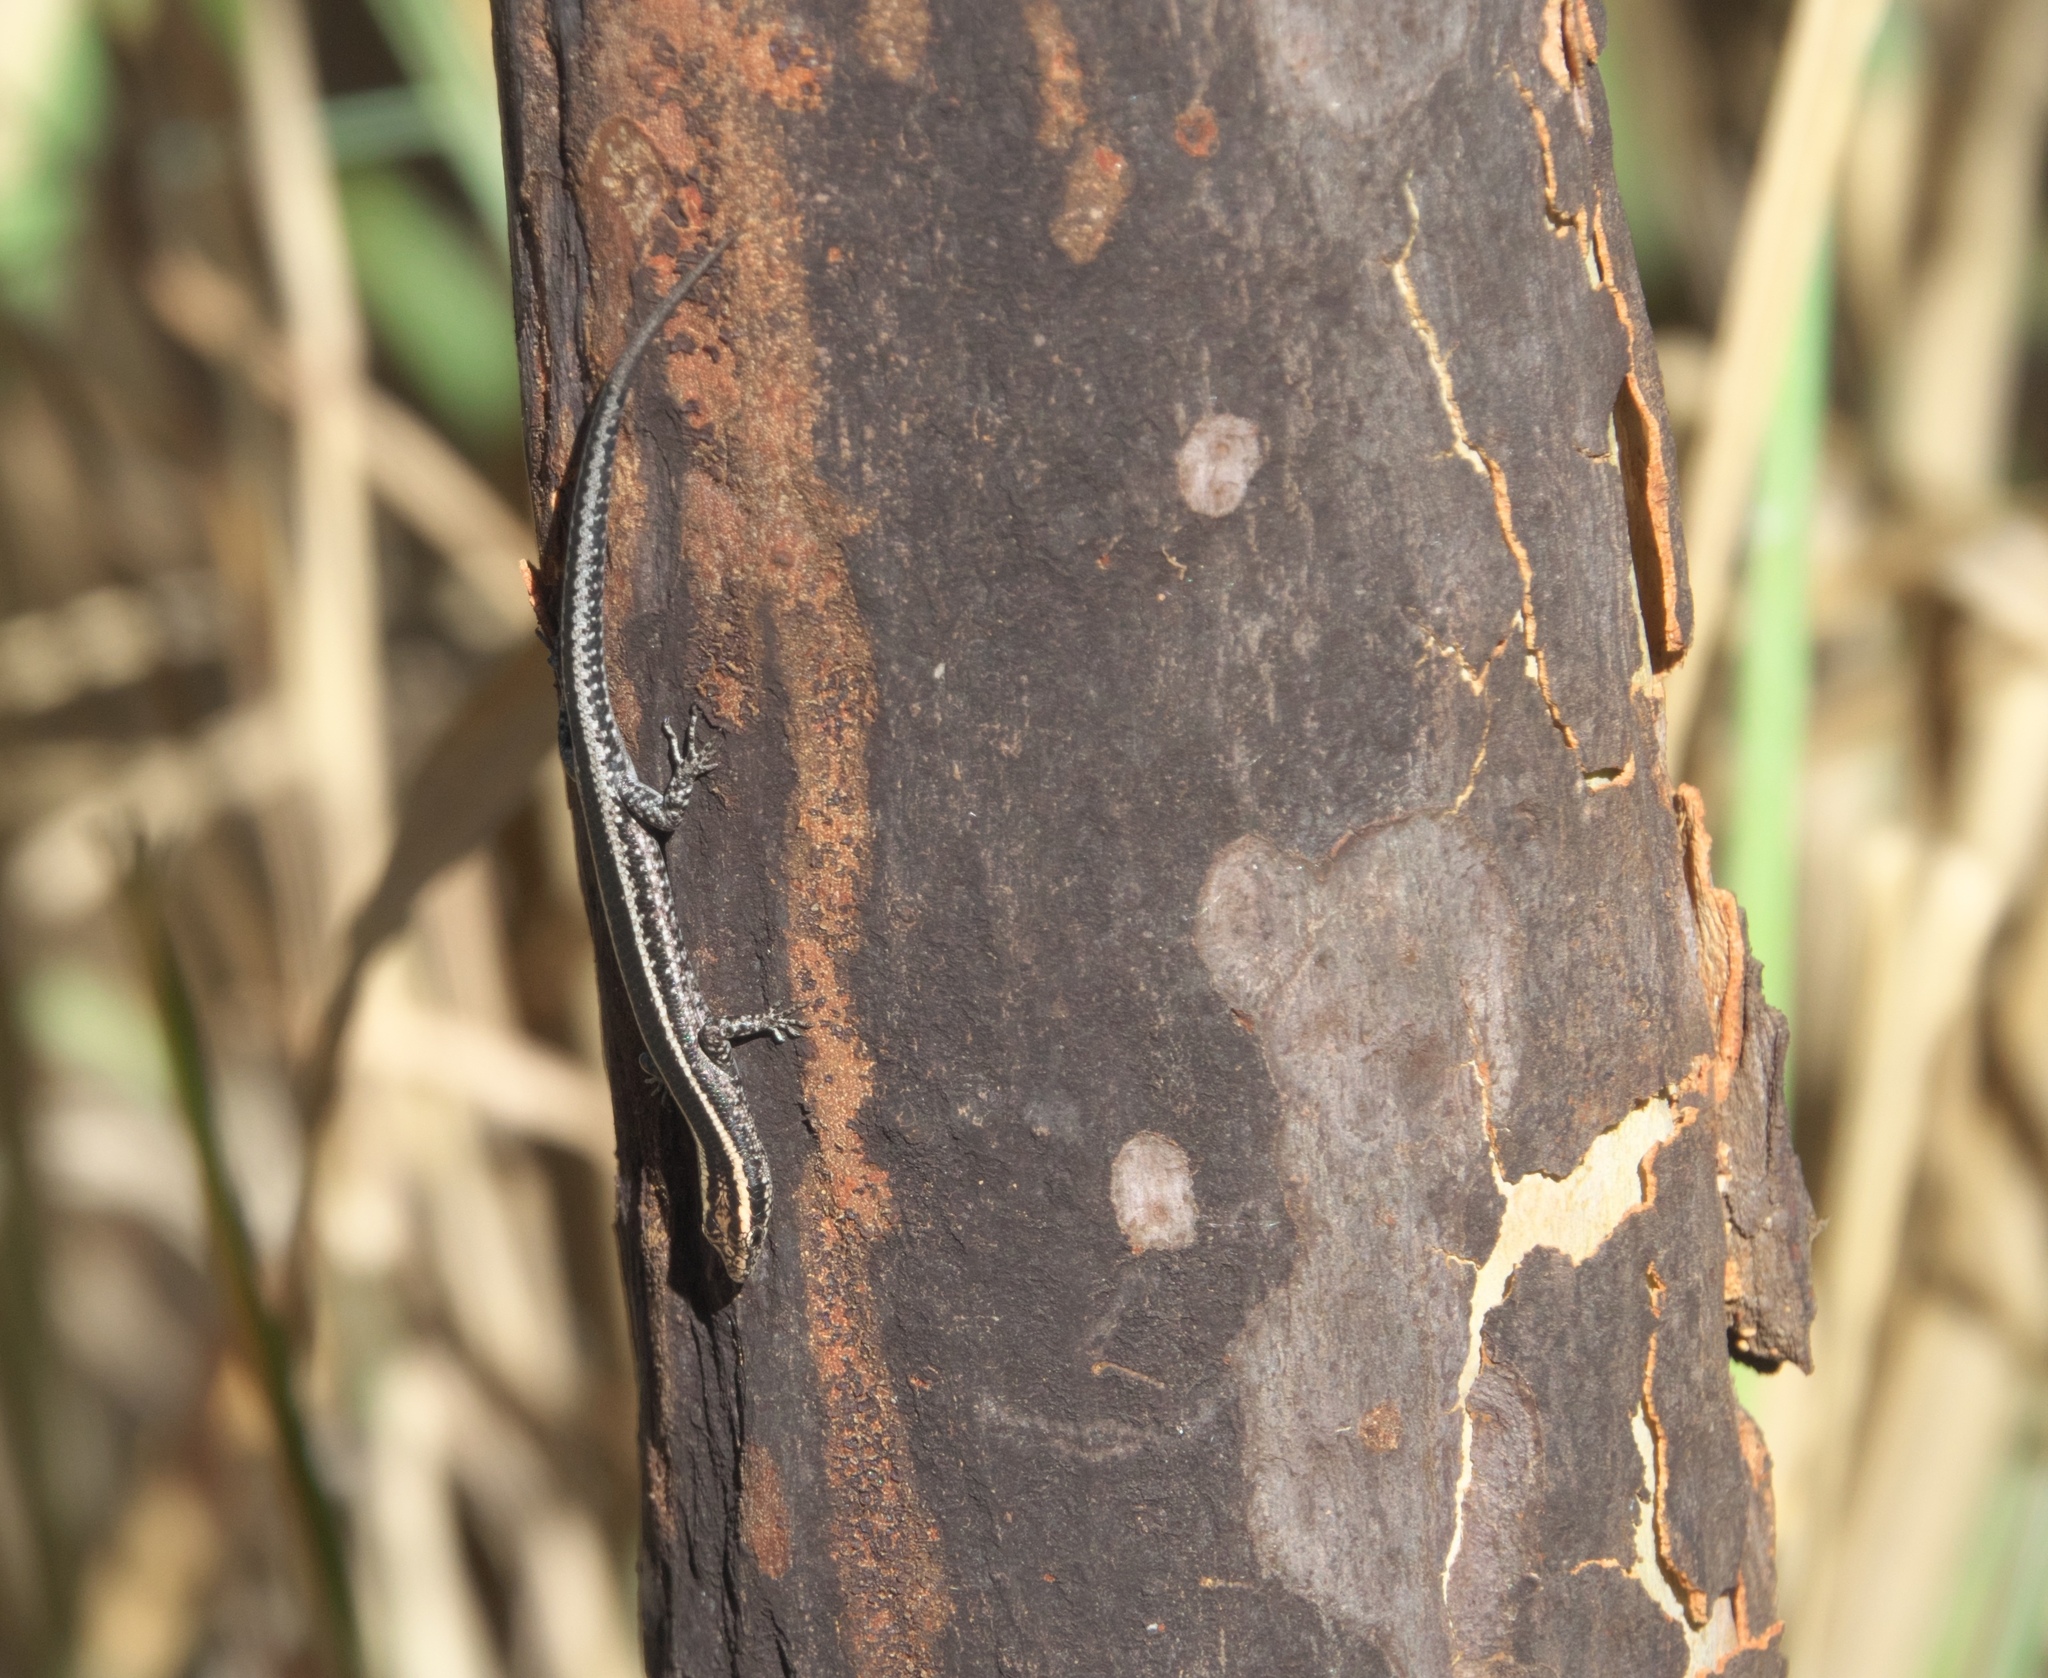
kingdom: Animalia
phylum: Chordata
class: Squamata
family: Scincidae
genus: Cryptoblepharus
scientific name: Cryptoblepharus pulcher
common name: Elegant snake-eyed skink
